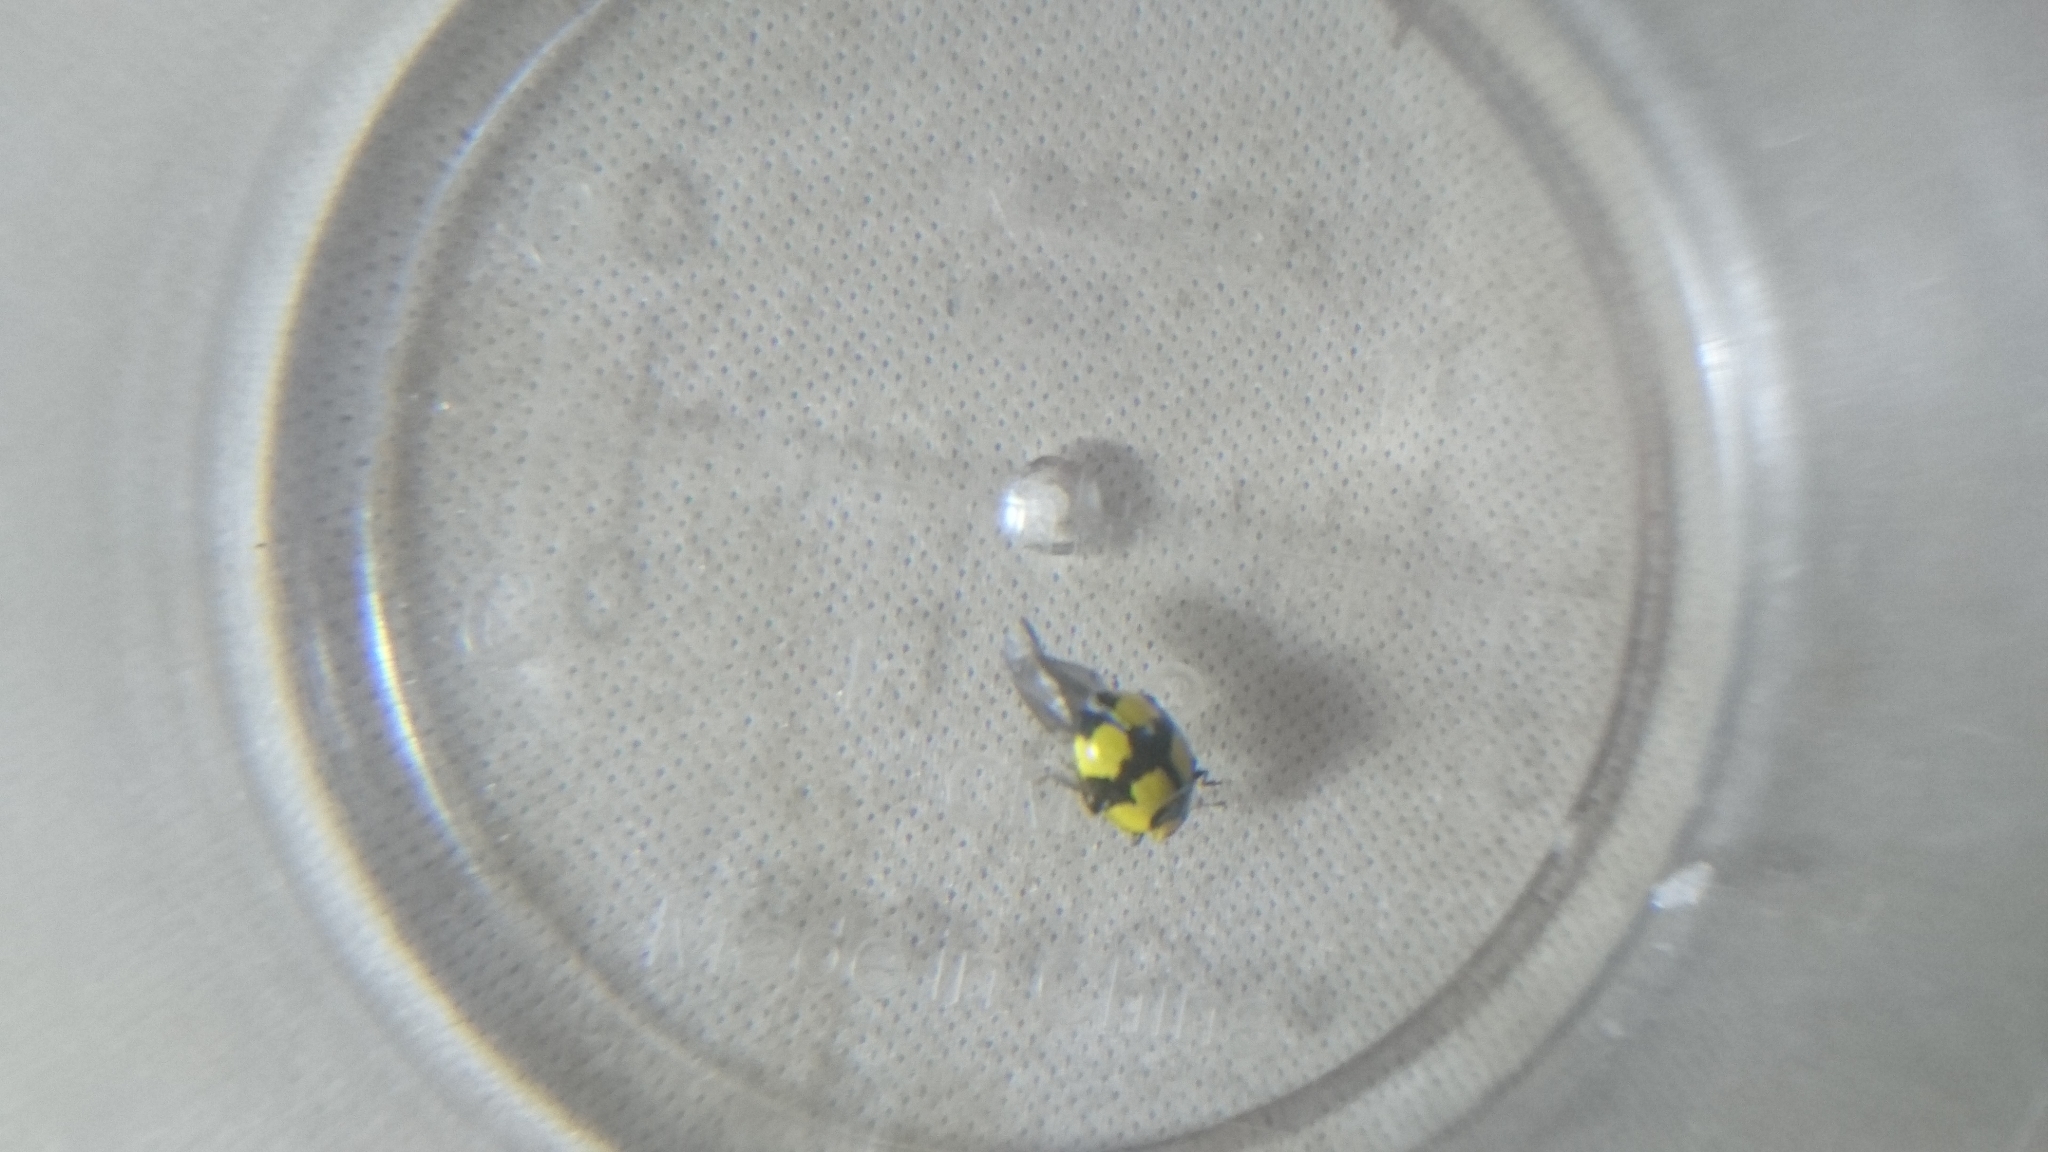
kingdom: Animalia
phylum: Arthropoda
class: Insecta
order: Coleoptera
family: Coccinellidae
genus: Illeis
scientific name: Illeis galbula
